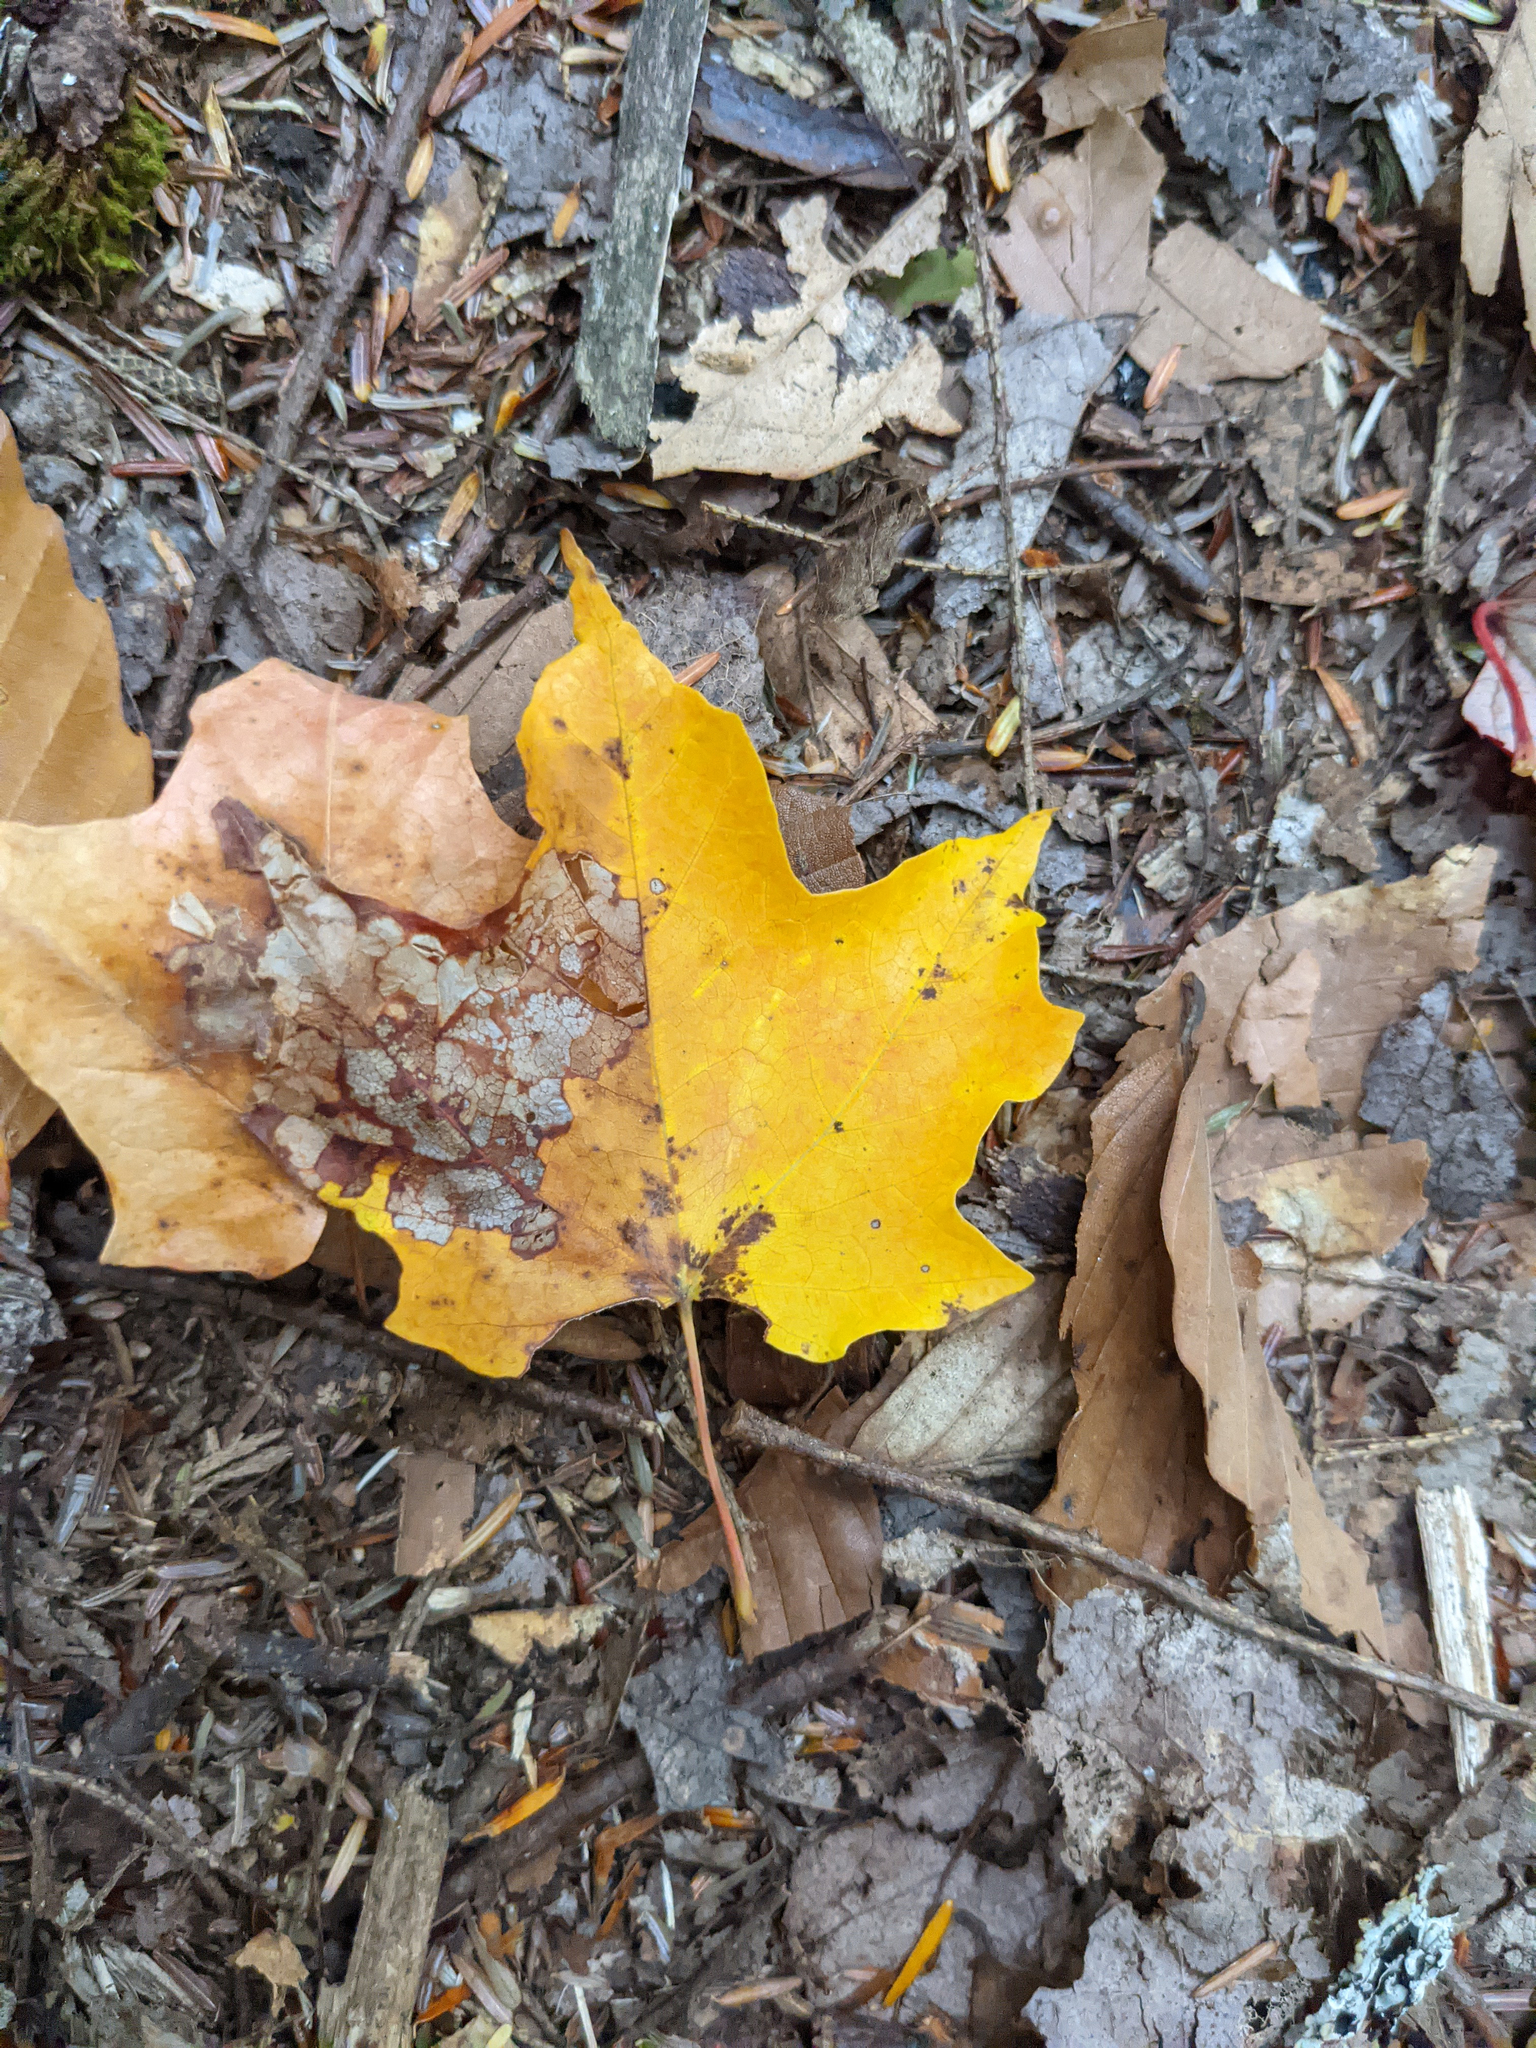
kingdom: Plantae
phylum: Tracheophyta
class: Magnoliopsida
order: Sapindales
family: Sapindaceae
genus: Acer
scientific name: Acer saccharum
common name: Sugar maple
